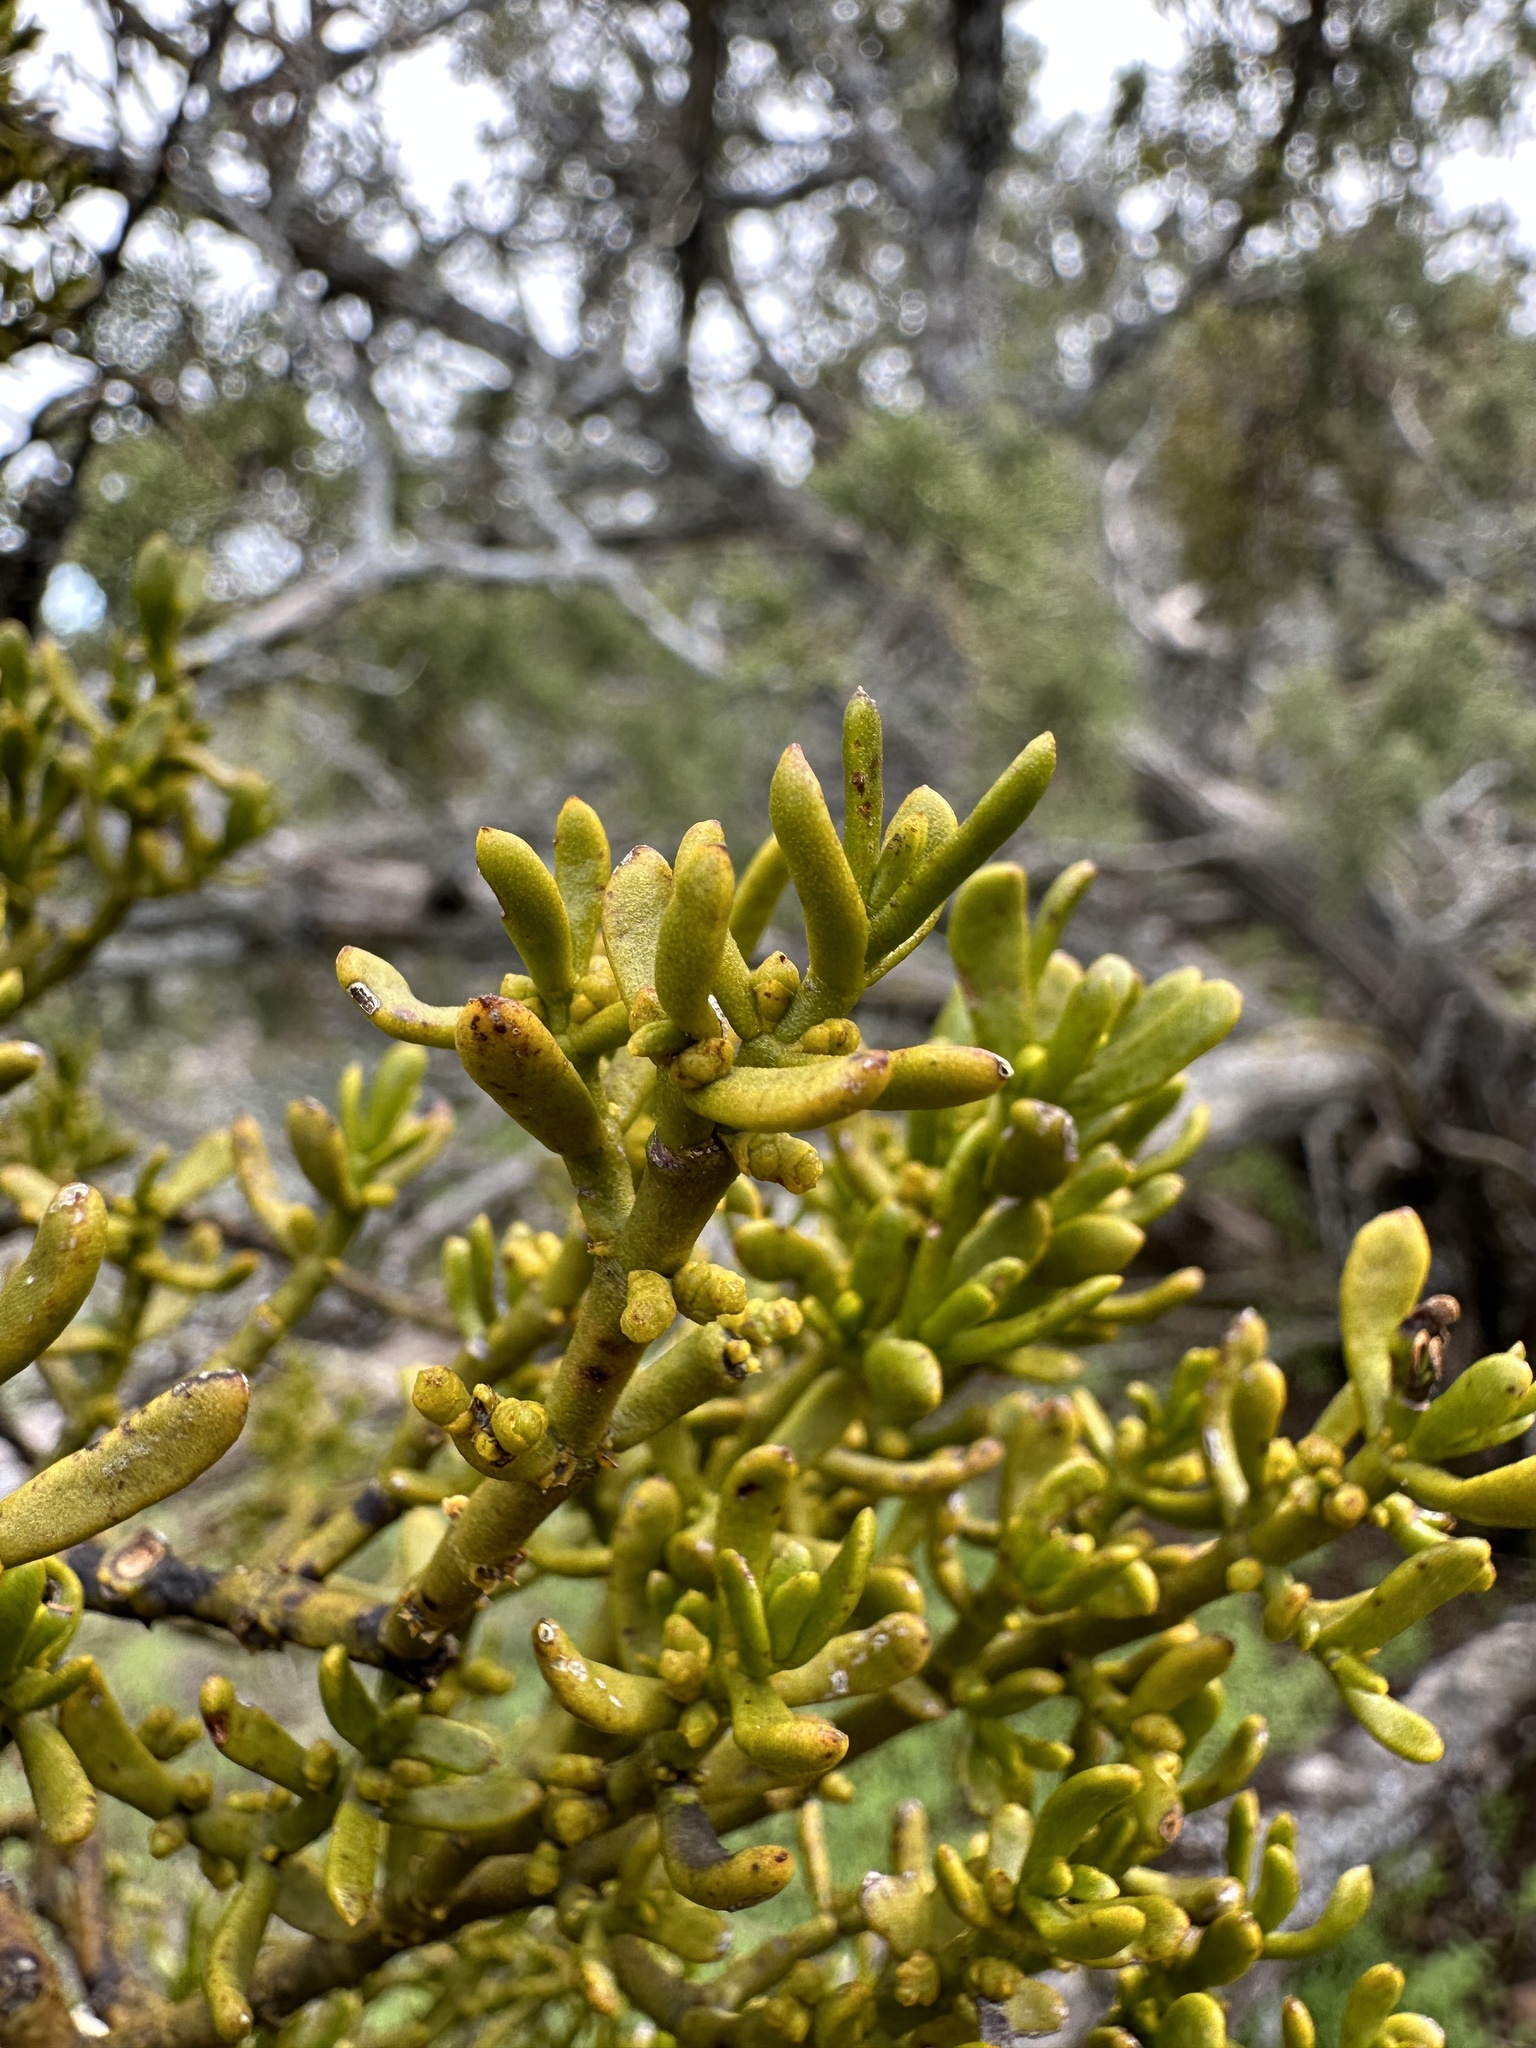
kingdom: Plantae
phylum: Tracheophyta
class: Magnoliopsida
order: Santalales
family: Viscaceae
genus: Phoradendron
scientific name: Phoradendron bolleanum
